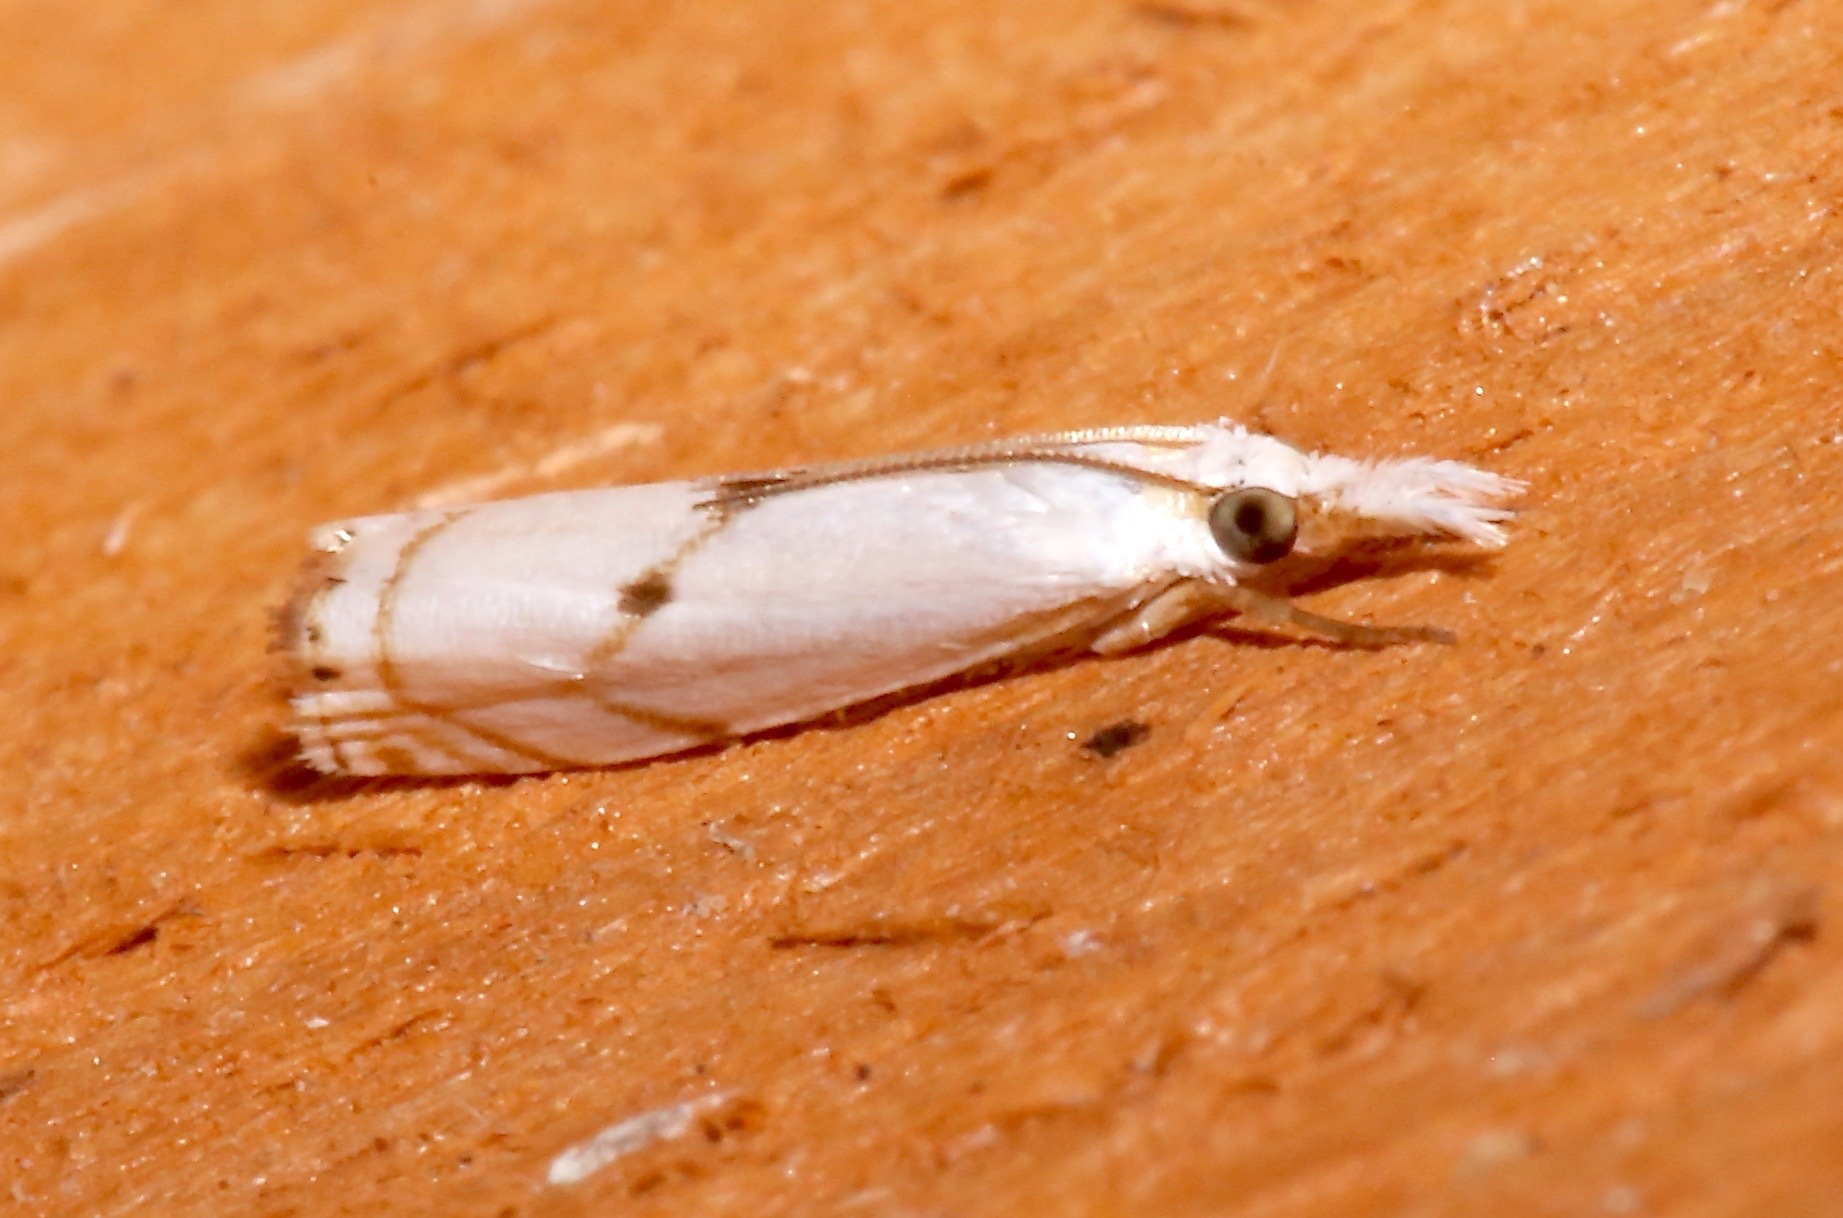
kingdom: Animalia
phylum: Arthropoda
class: Insecta
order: Lepidoptera
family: Crambidae
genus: Microcrambus
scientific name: Microcrambus biguttellus
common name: Gold-stripe grass-veneer moth
